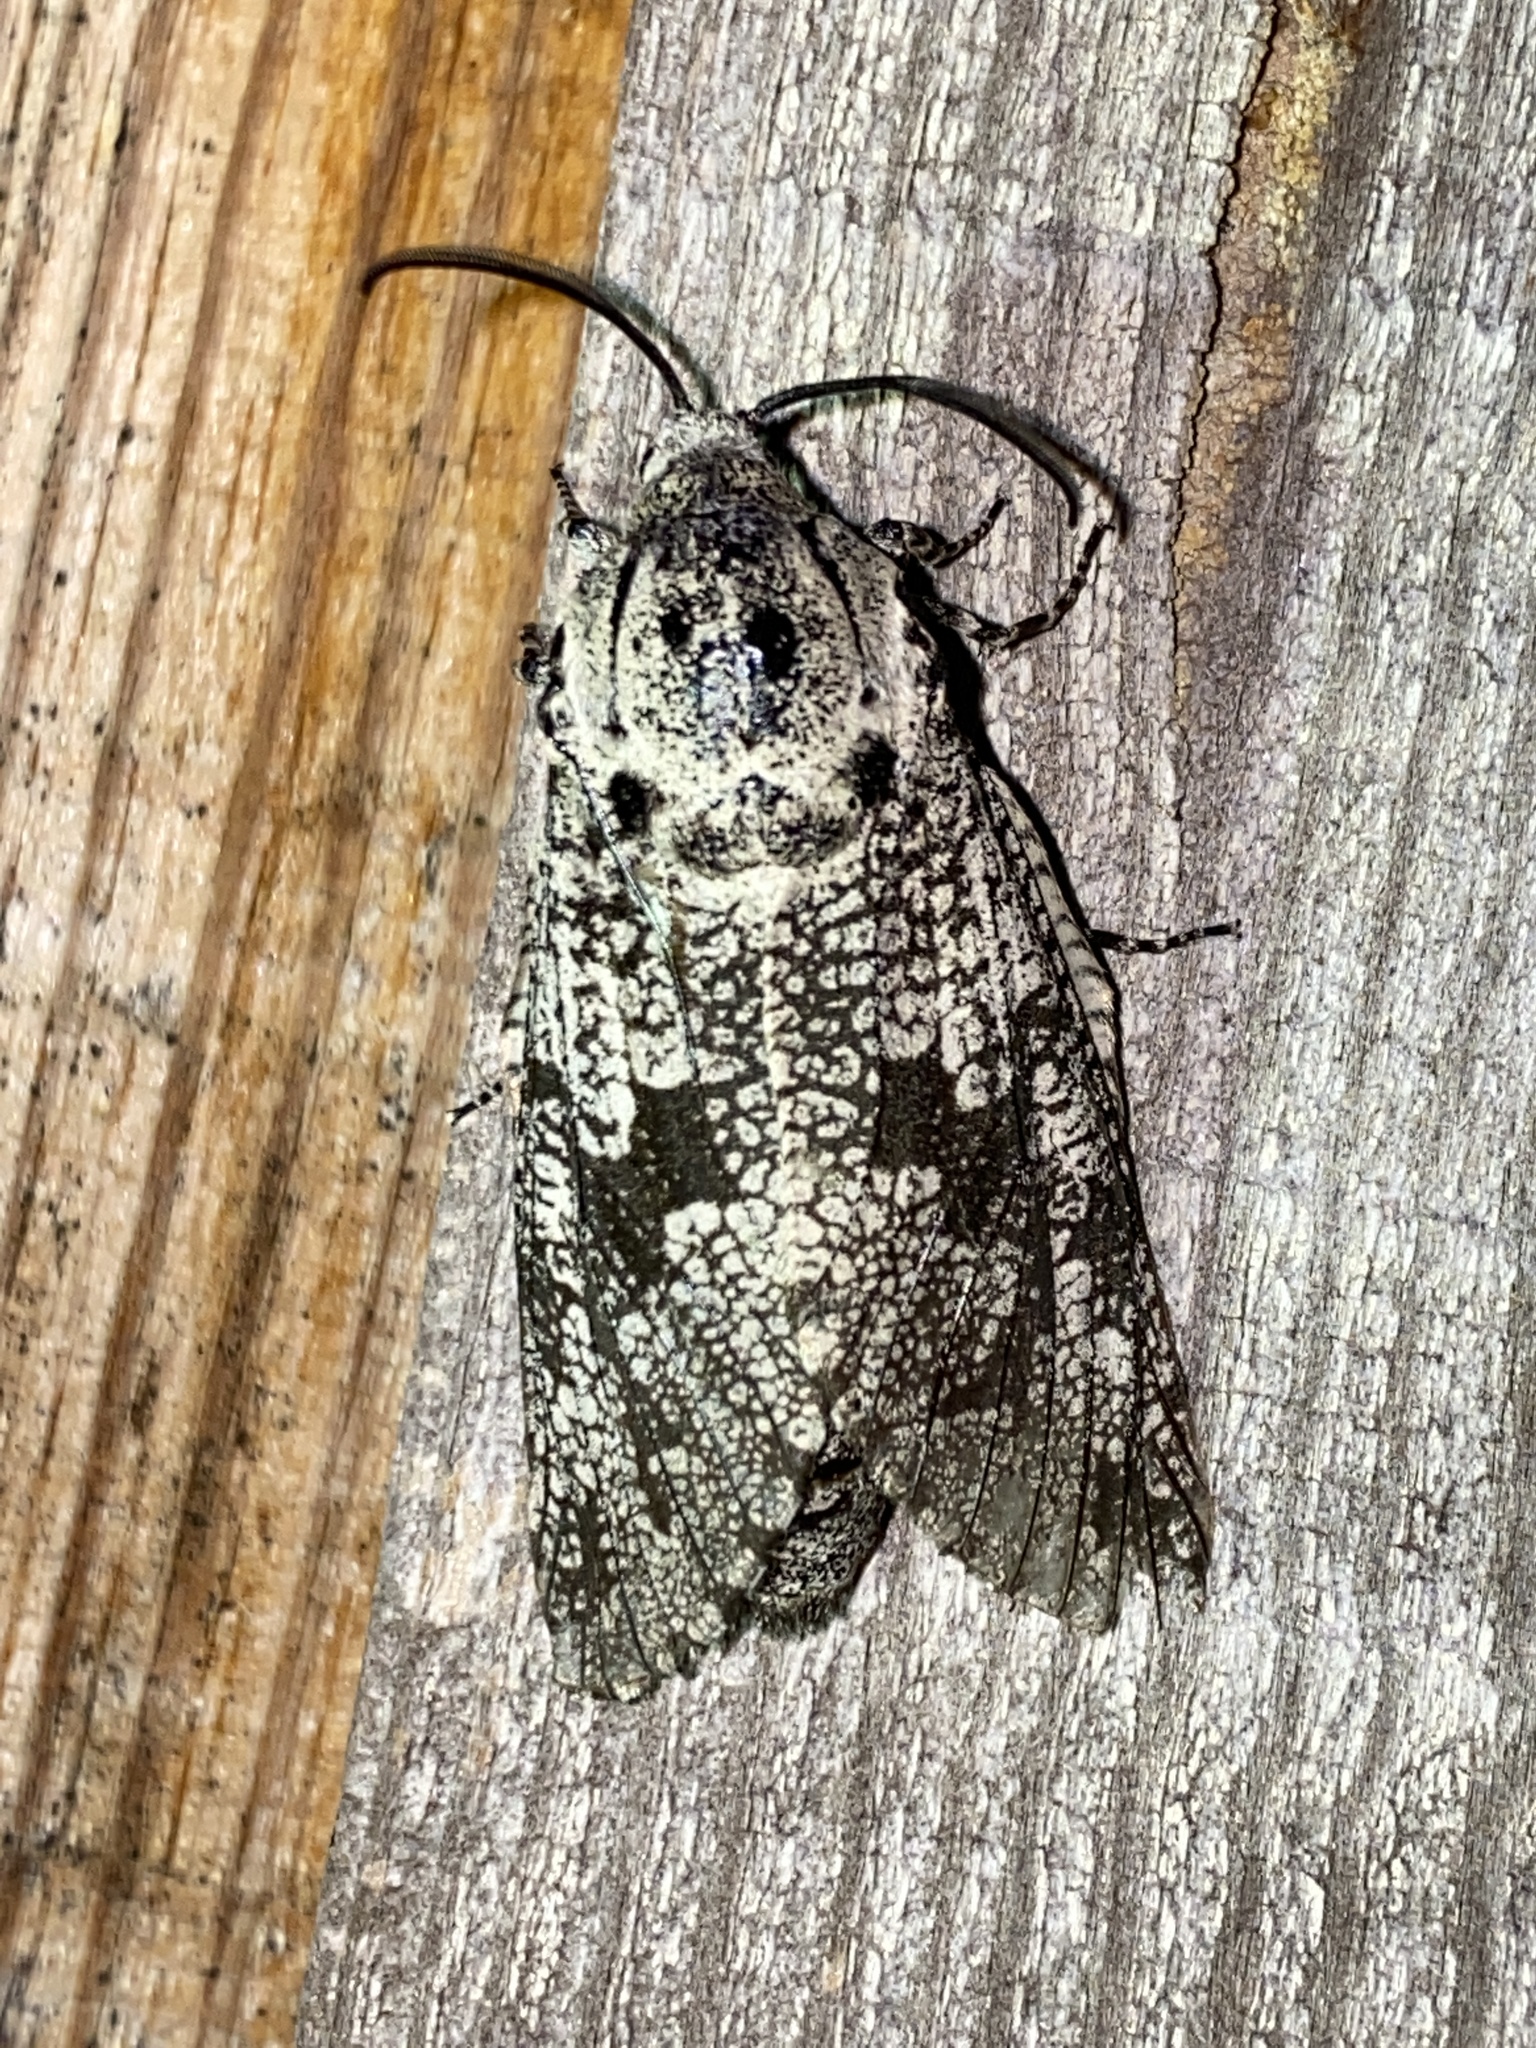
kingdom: Animalia
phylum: Arthropoda
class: Insecta
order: Lepidoptera
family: Cossidae
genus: Prionoxystus
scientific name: Prionoxystus robiniae
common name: Carpenterworm
